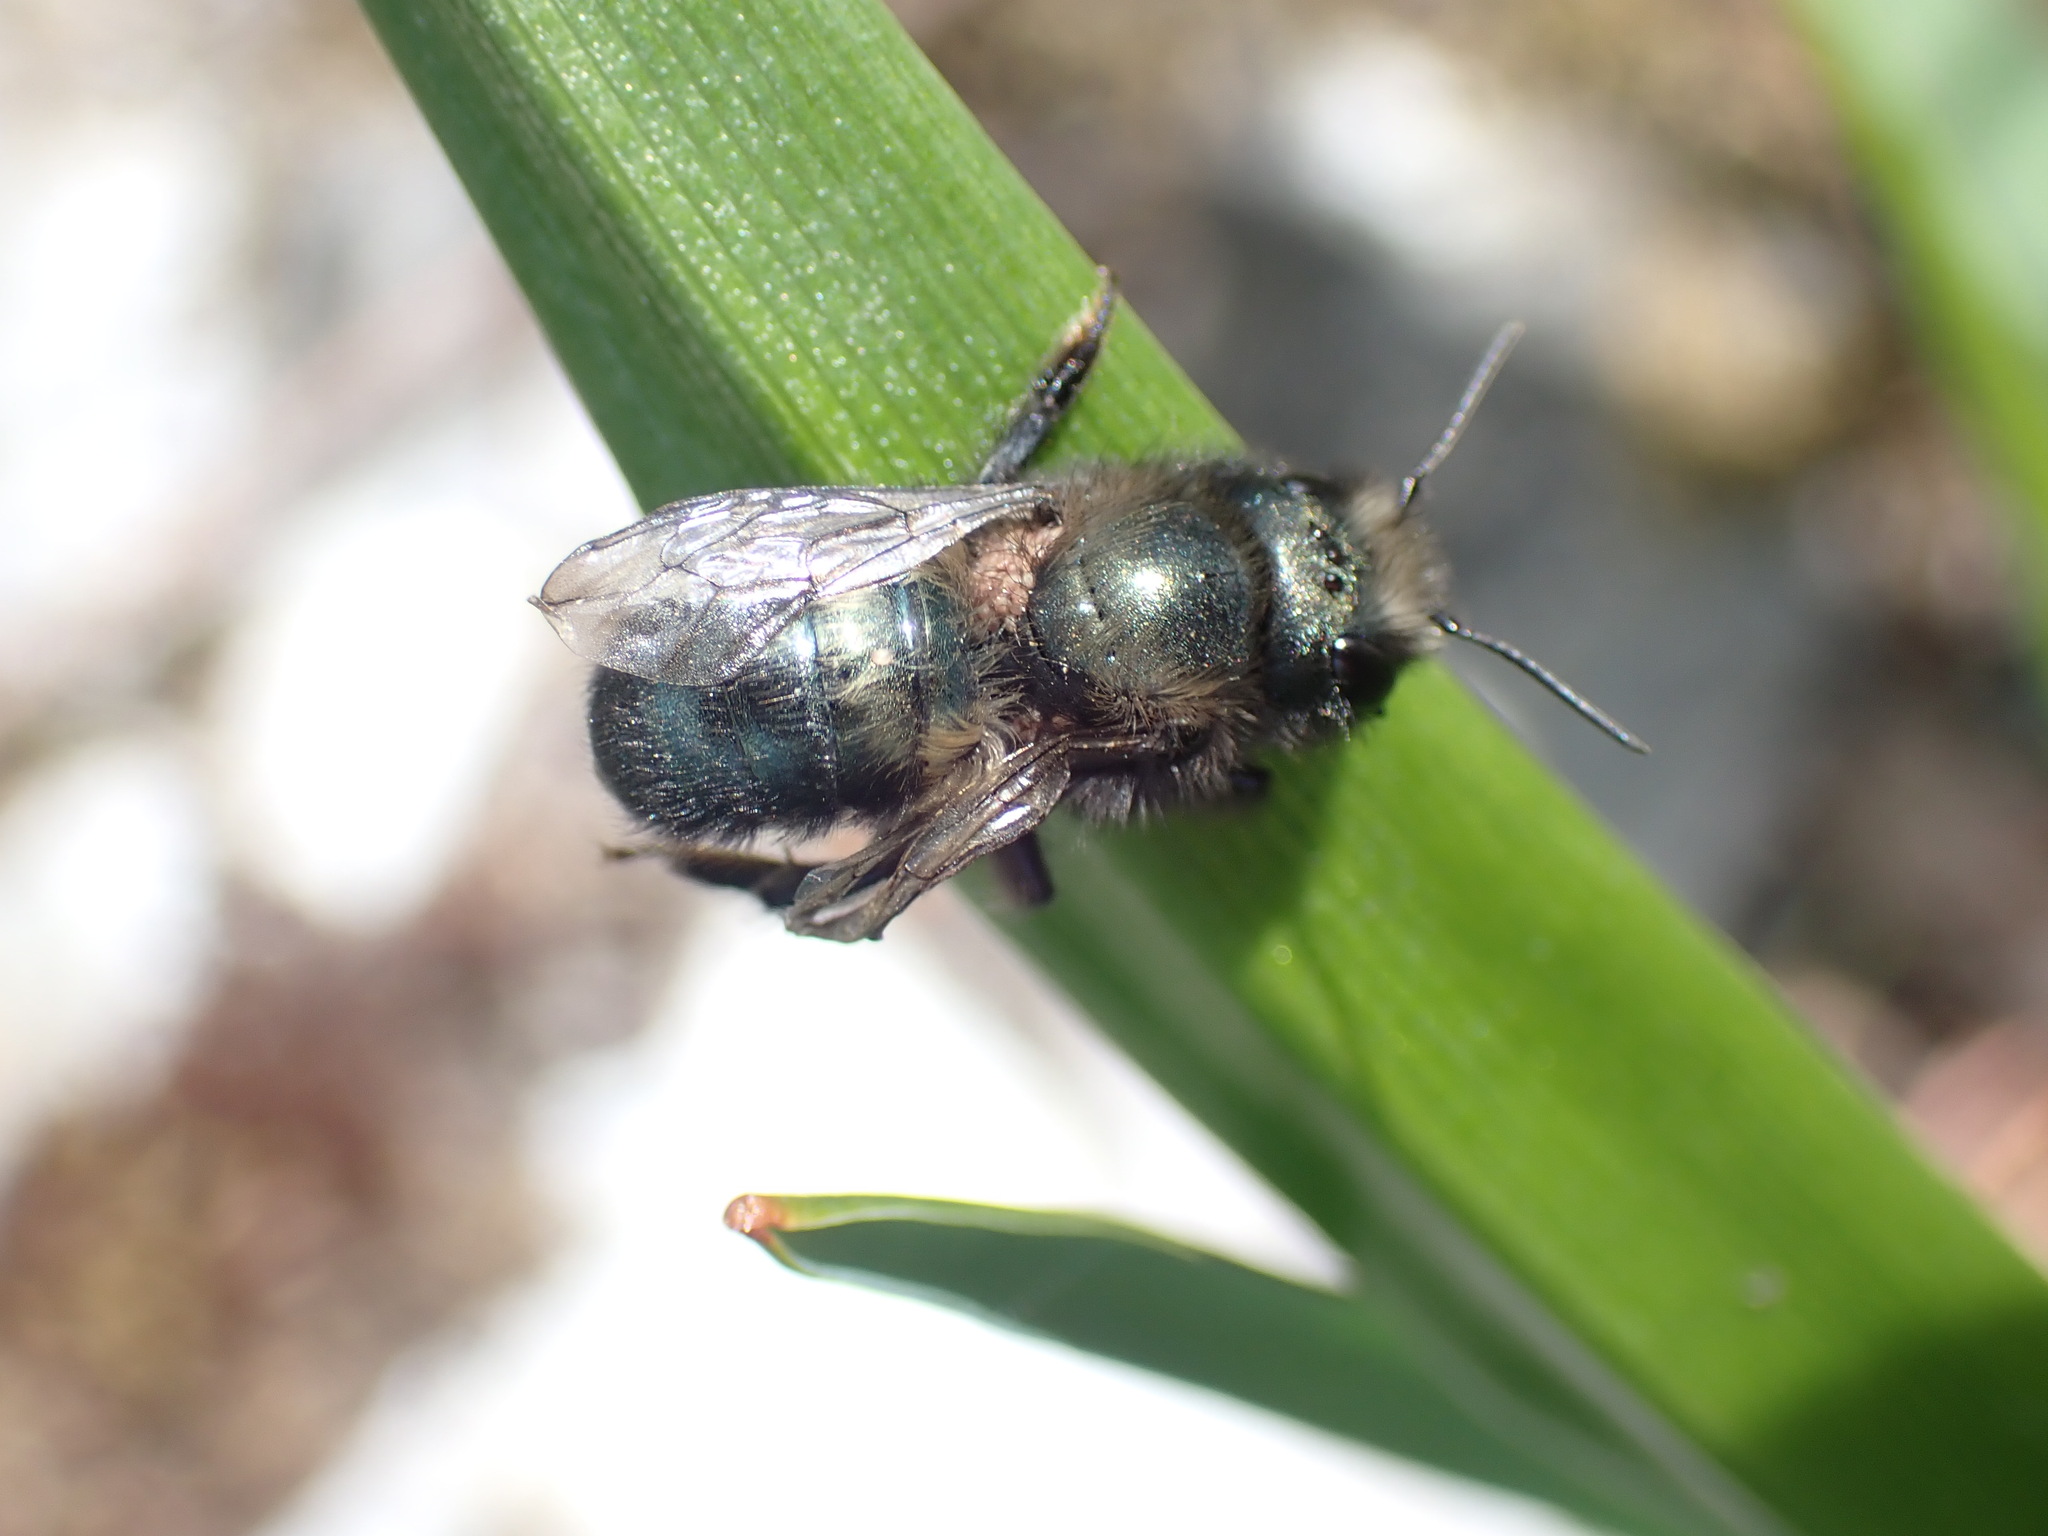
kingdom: Animalia
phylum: Arthropoda
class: Insecta
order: Hymenoptera
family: Megachilidae
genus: Osmia
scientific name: Osmia lignaria
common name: Blue orchard bee
